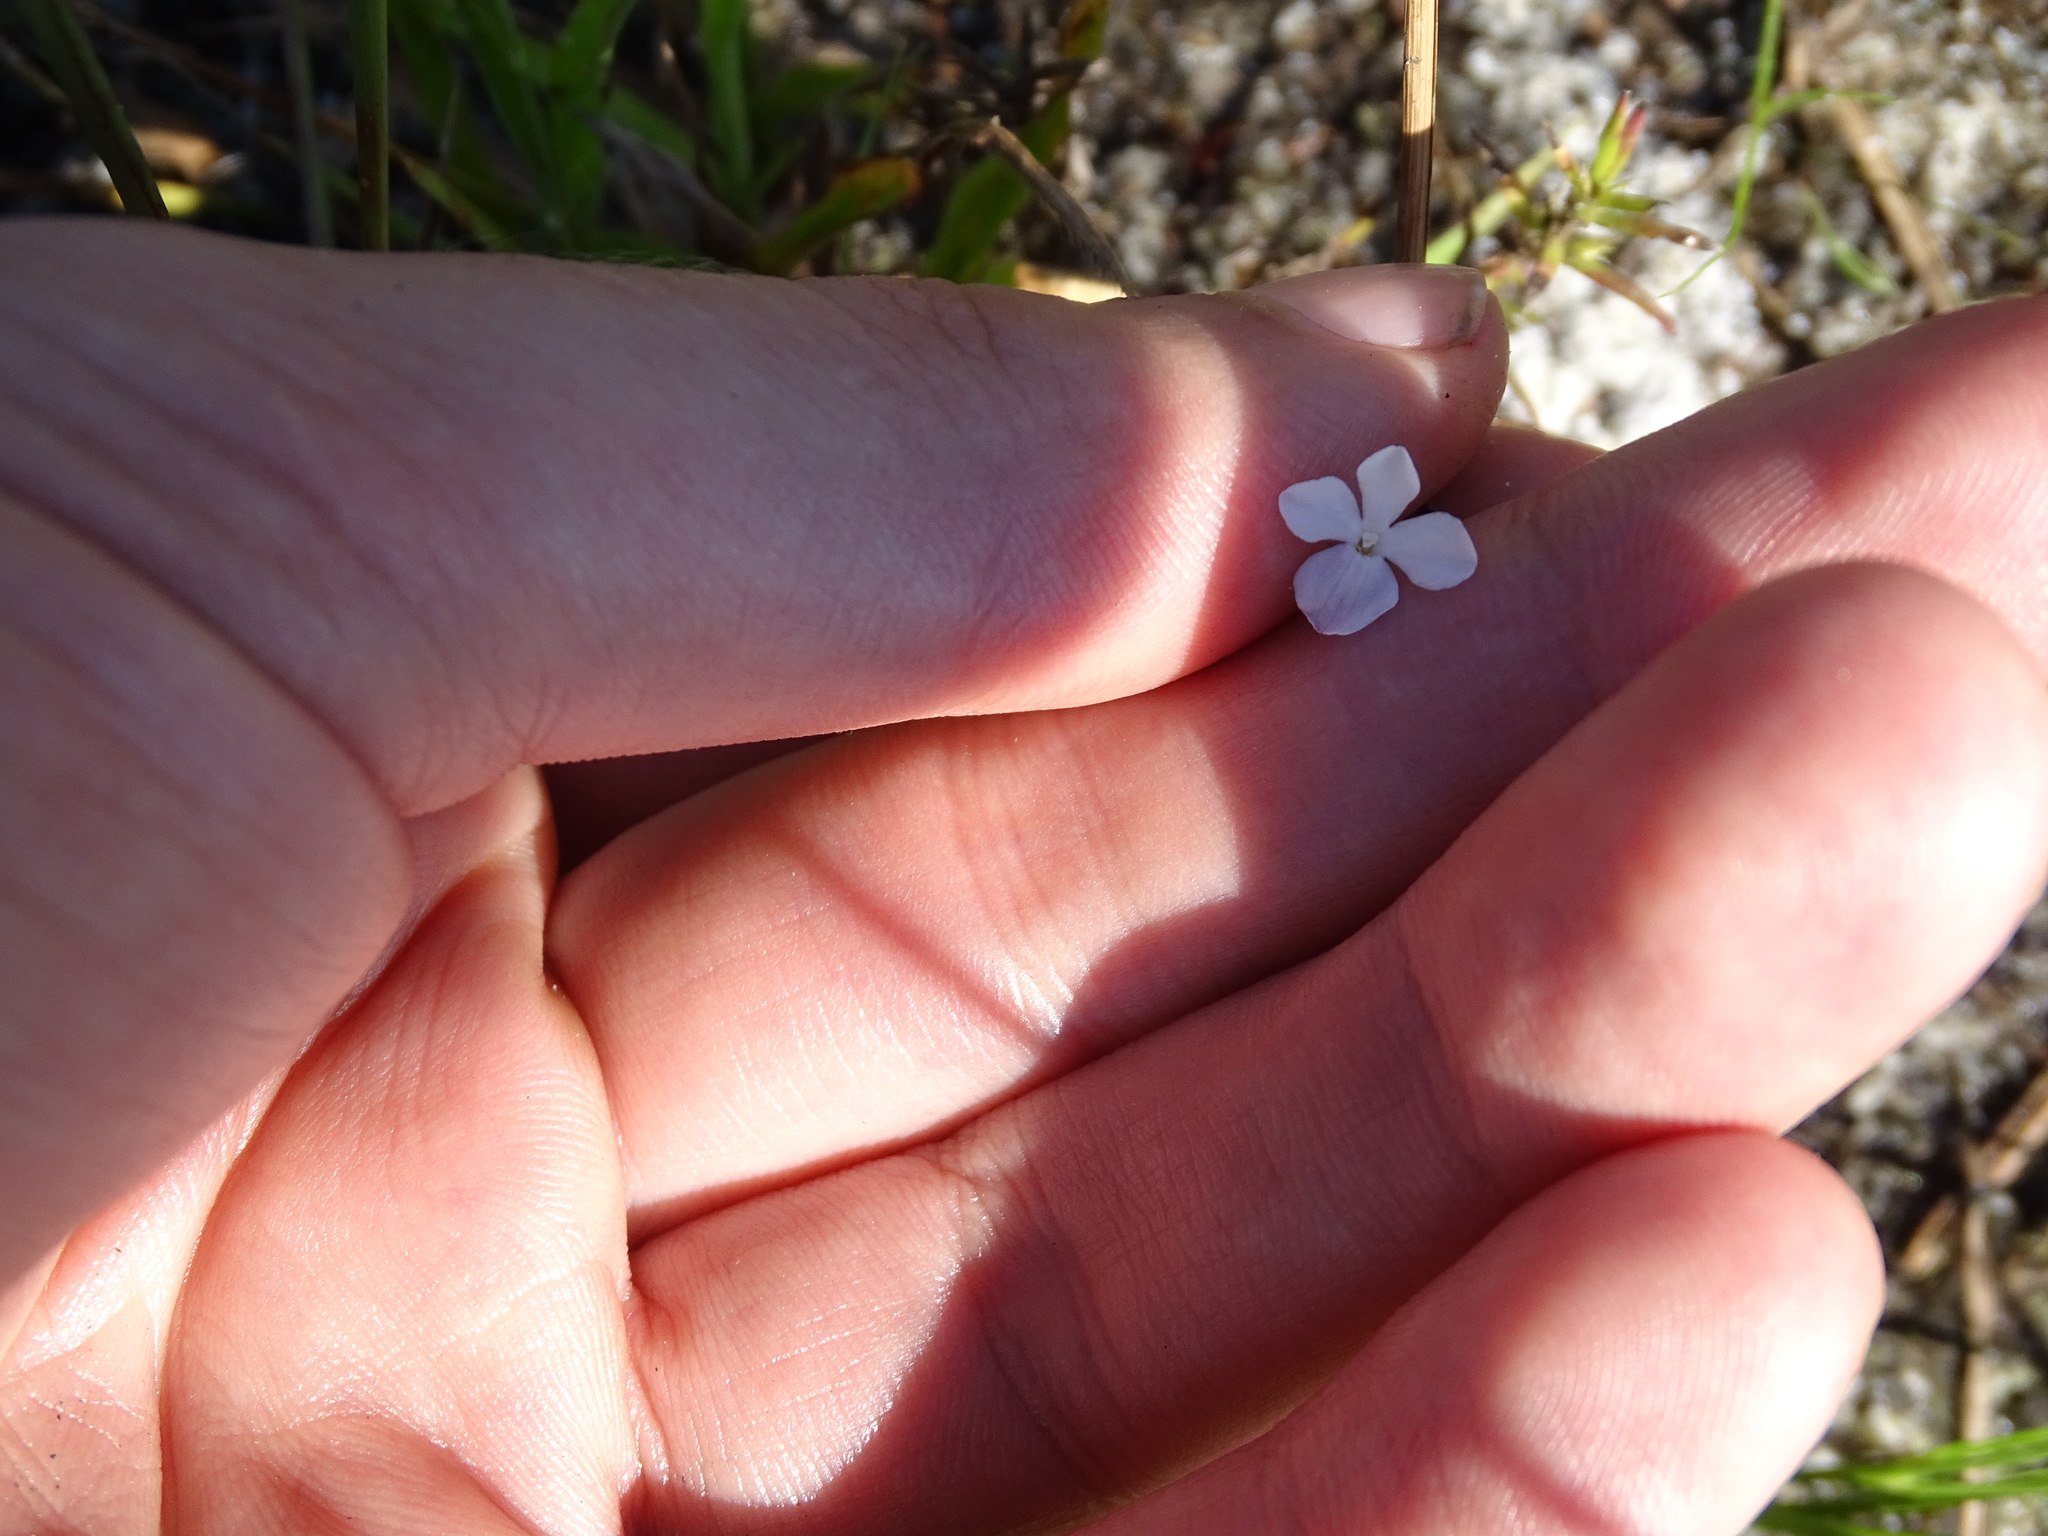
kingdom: Plantae
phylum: Tracheophyta
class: Magnoliopsida
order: Lamiales
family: Plantaginaceae
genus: Gratiola
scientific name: Gratiola hispida
